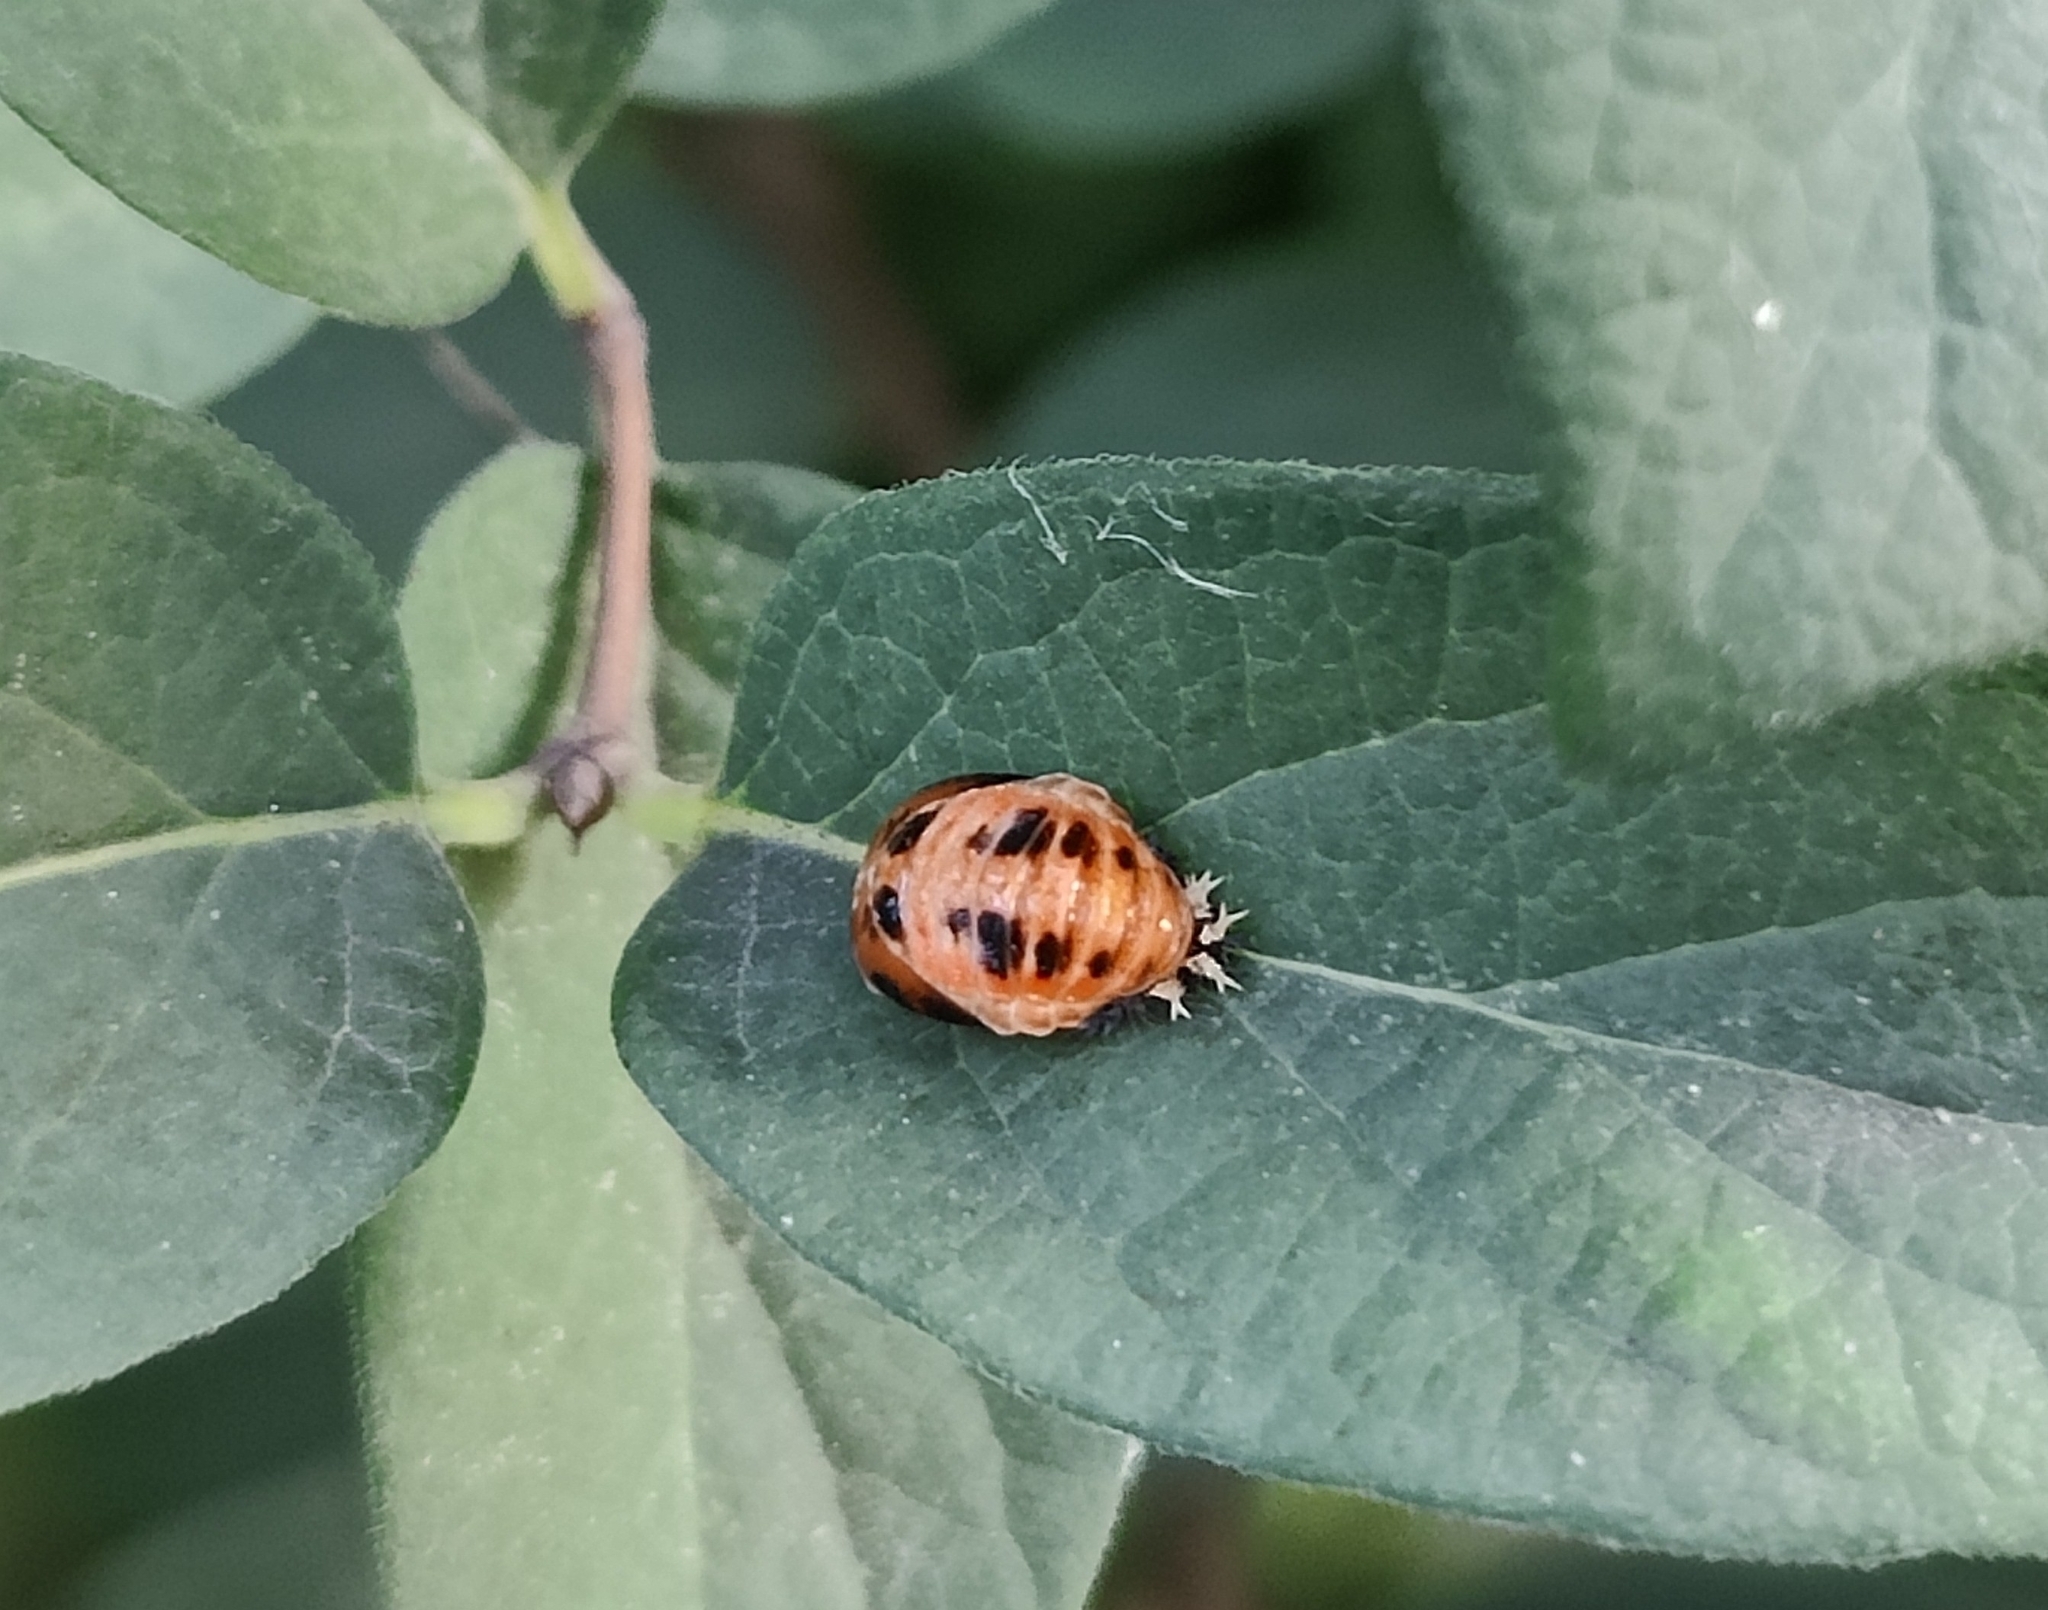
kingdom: Animalia
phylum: Arthropoda
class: Insecta
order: Coleoptera
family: Coccinellidae
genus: Harmonia
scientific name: Harmonia axyridis
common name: Harlequin ladybird
